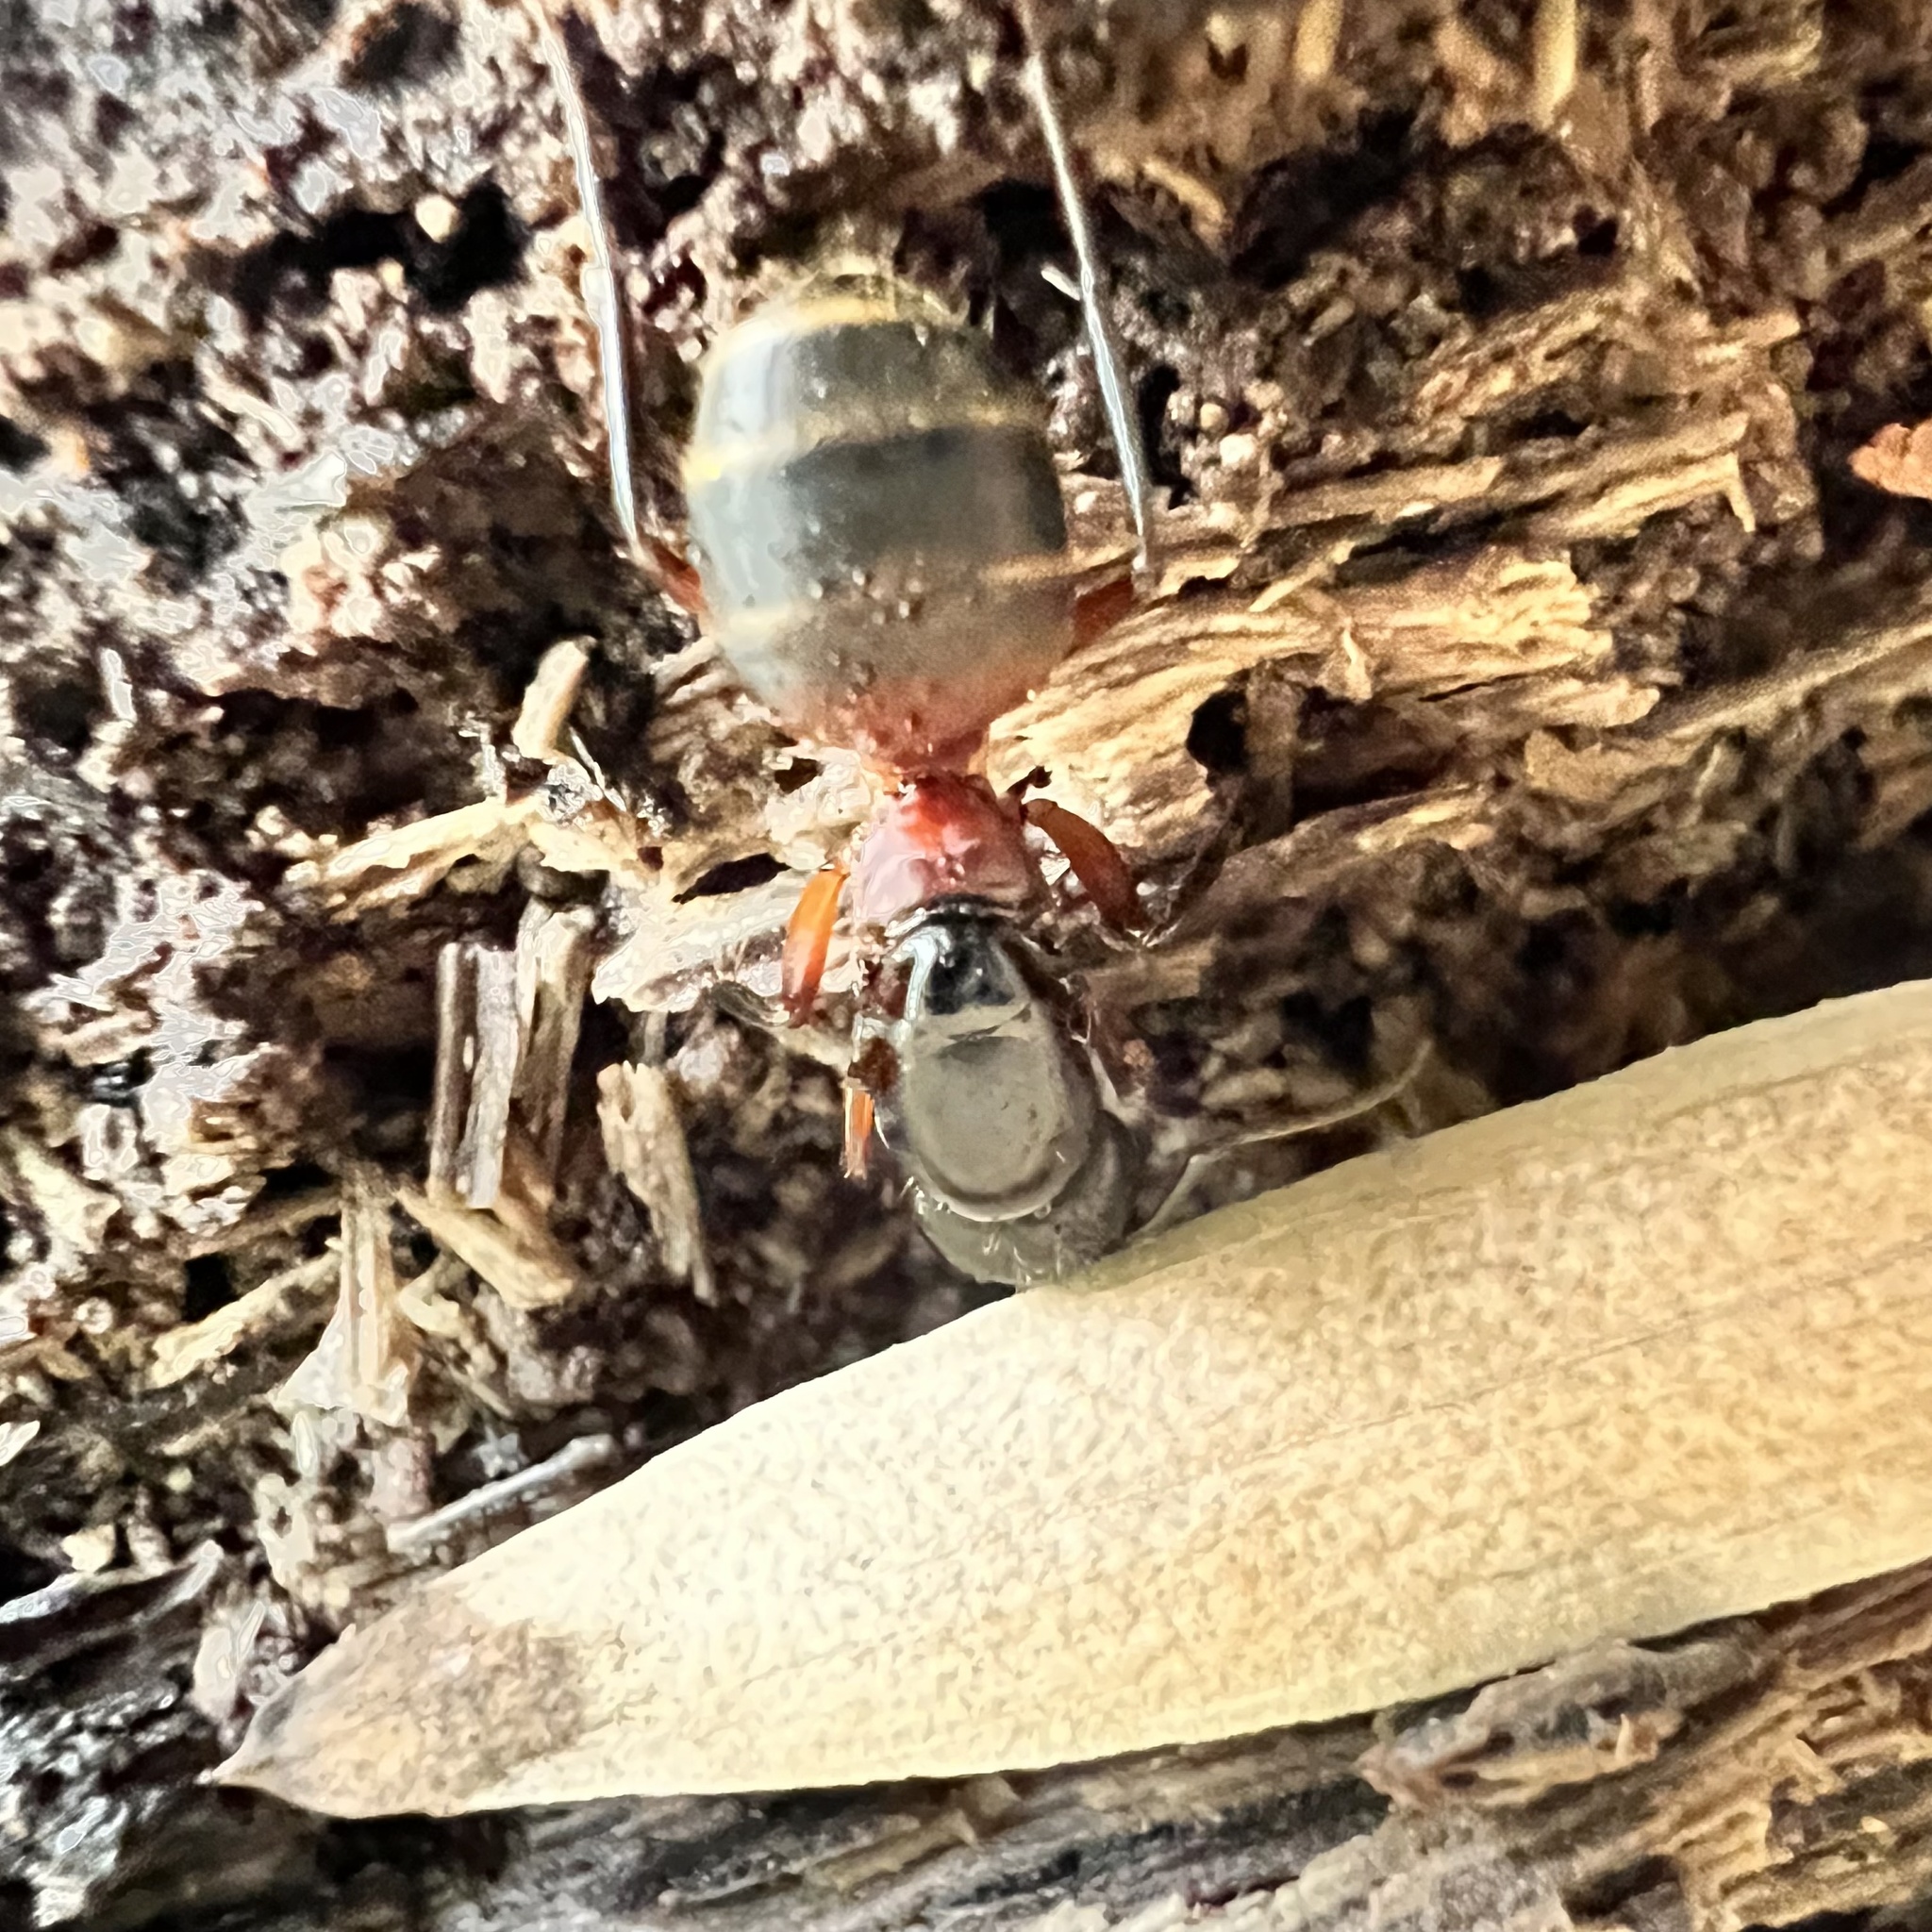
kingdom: Animalia
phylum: Arthropoda
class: Insecta
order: Hymenoptera
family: Formicidae
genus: Camponotus
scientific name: Camponotus chromaiodes
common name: Red carpenter ant
